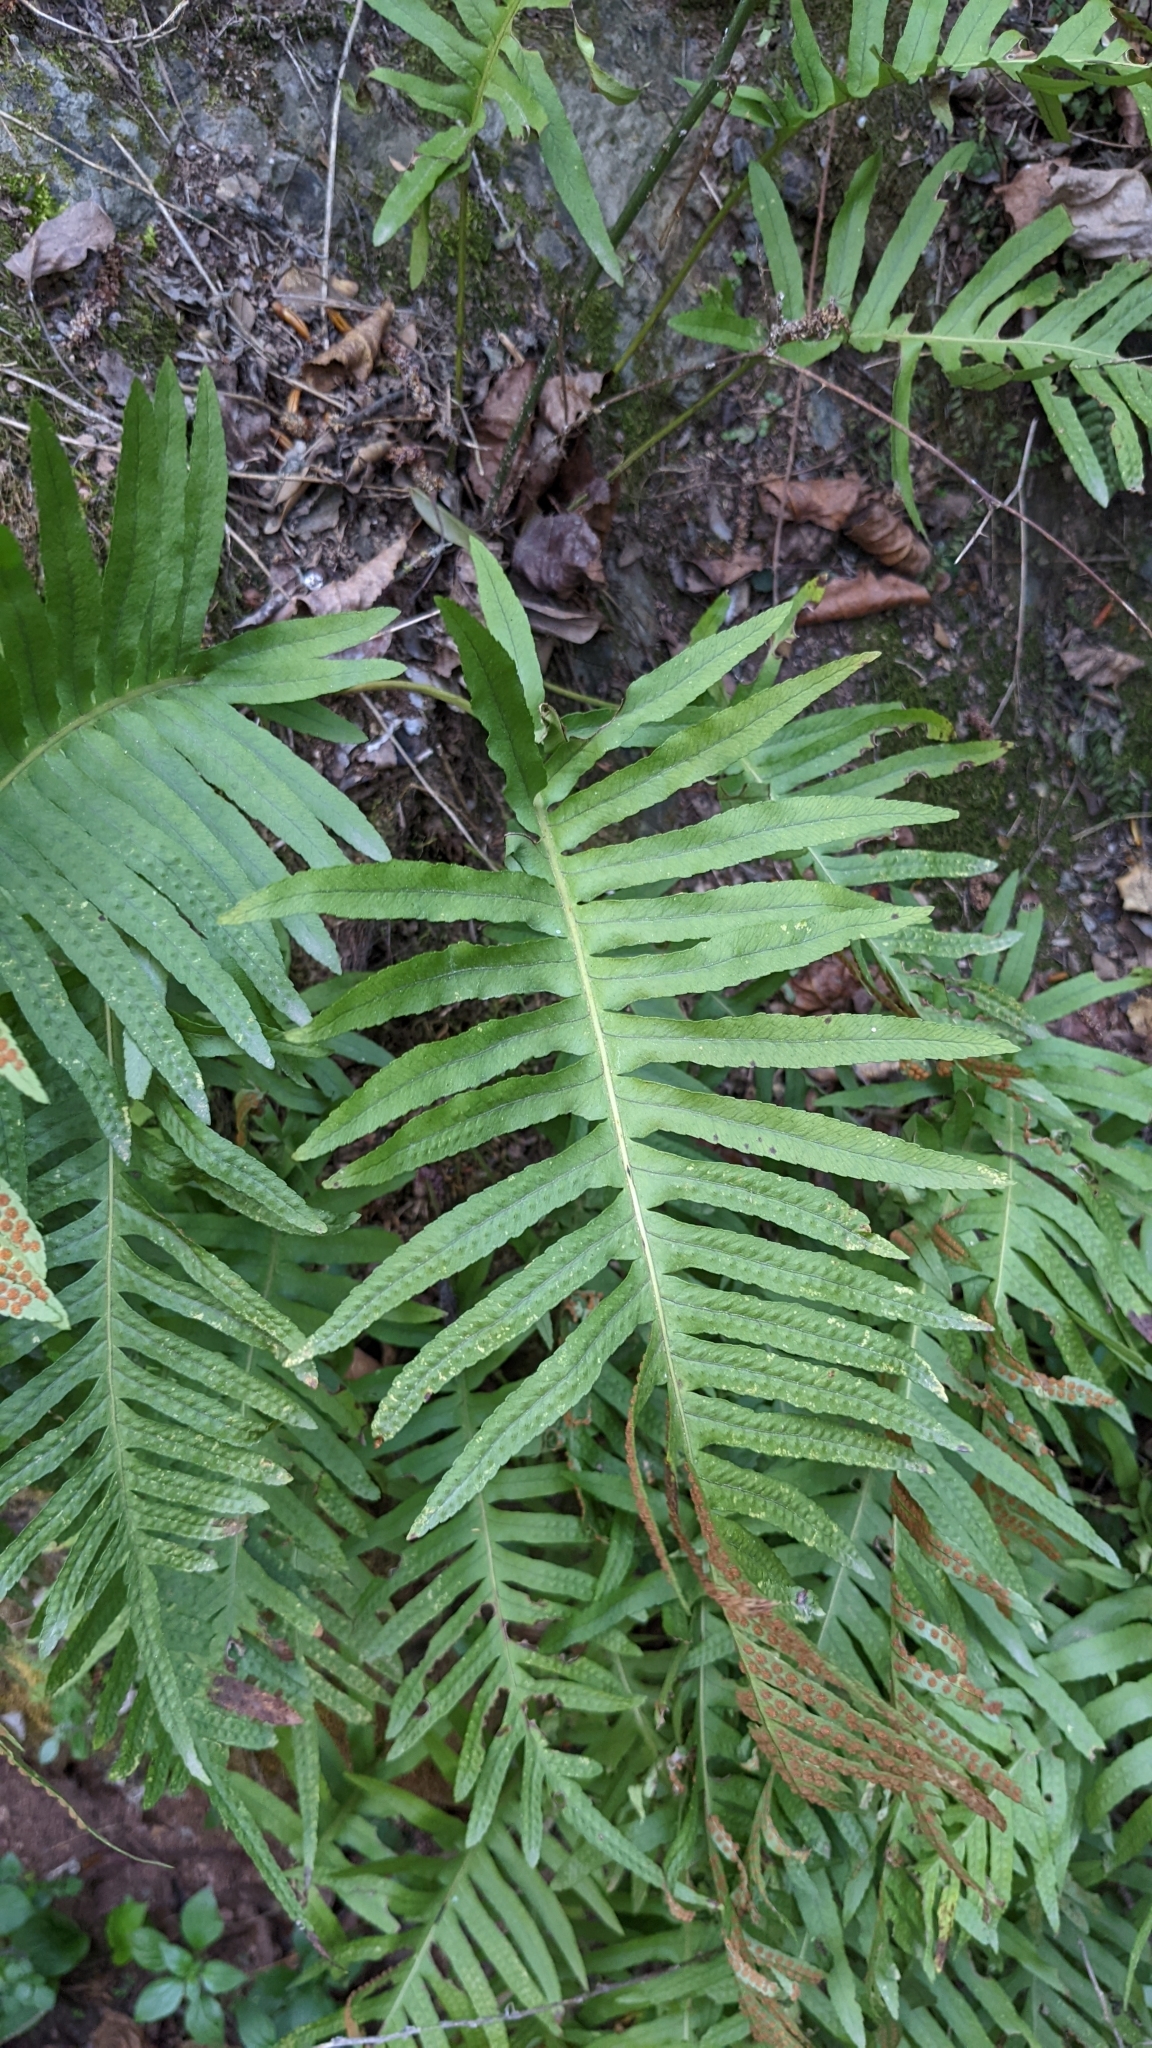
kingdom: Plantae
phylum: Tracheophyta
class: Polypodiopsida
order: Polypodiales
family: Polypodiaceae
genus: Polypodium
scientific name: Polypodium cambricum
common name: Southern polypody
